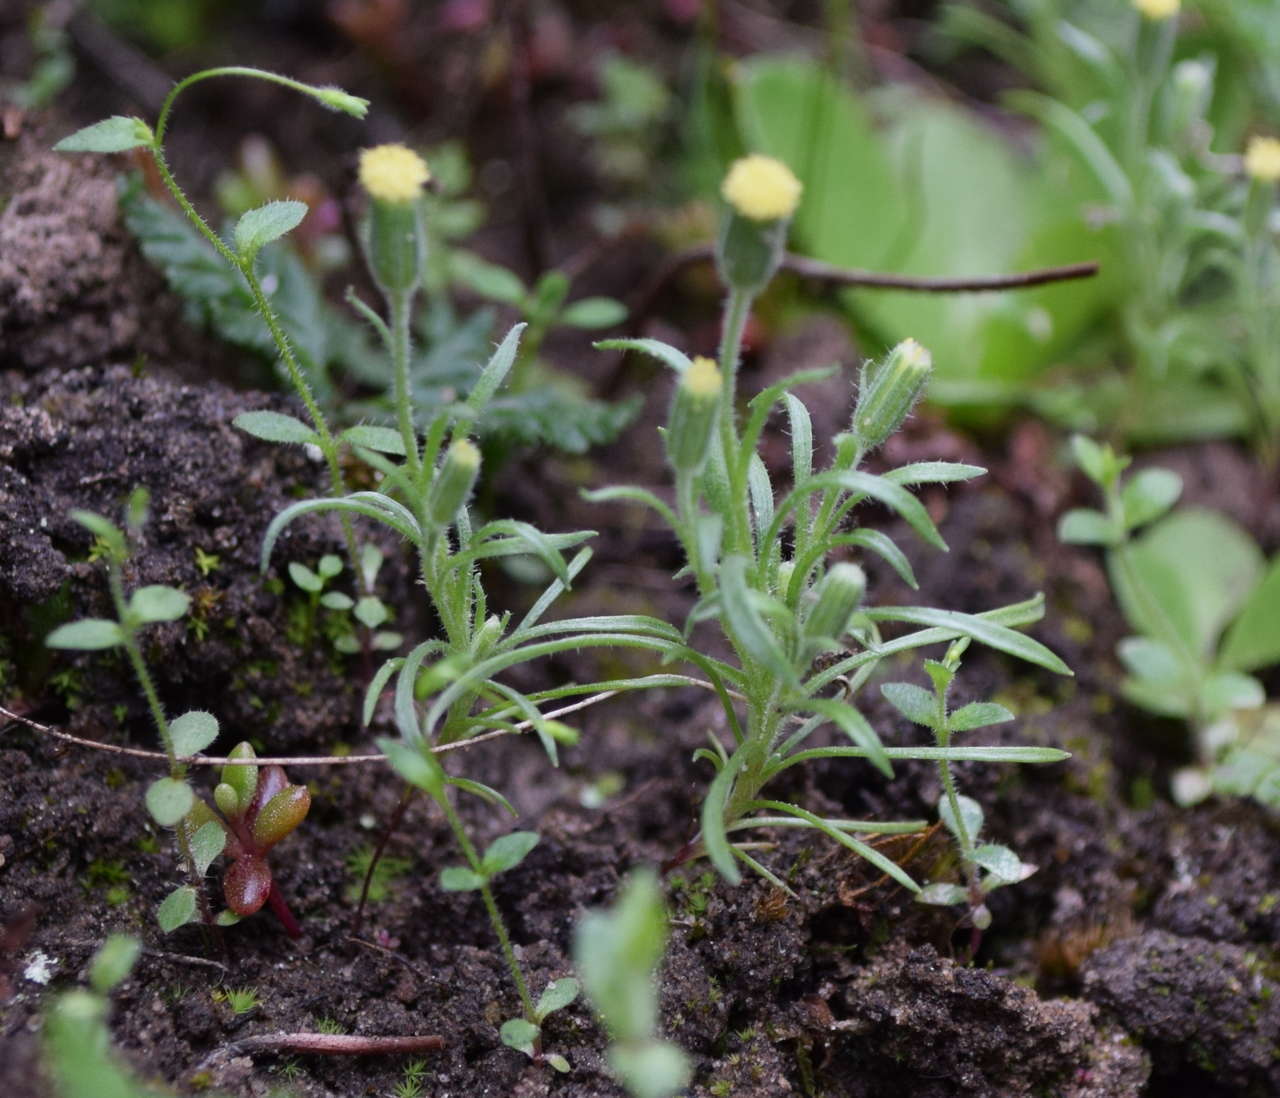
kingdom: Plantae
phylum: Tracheophyta
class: Magnoliopsida
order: Asterales
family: Asteraceae
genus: Millotia
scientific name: Millotia tenuifolia
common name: Soft millotia
